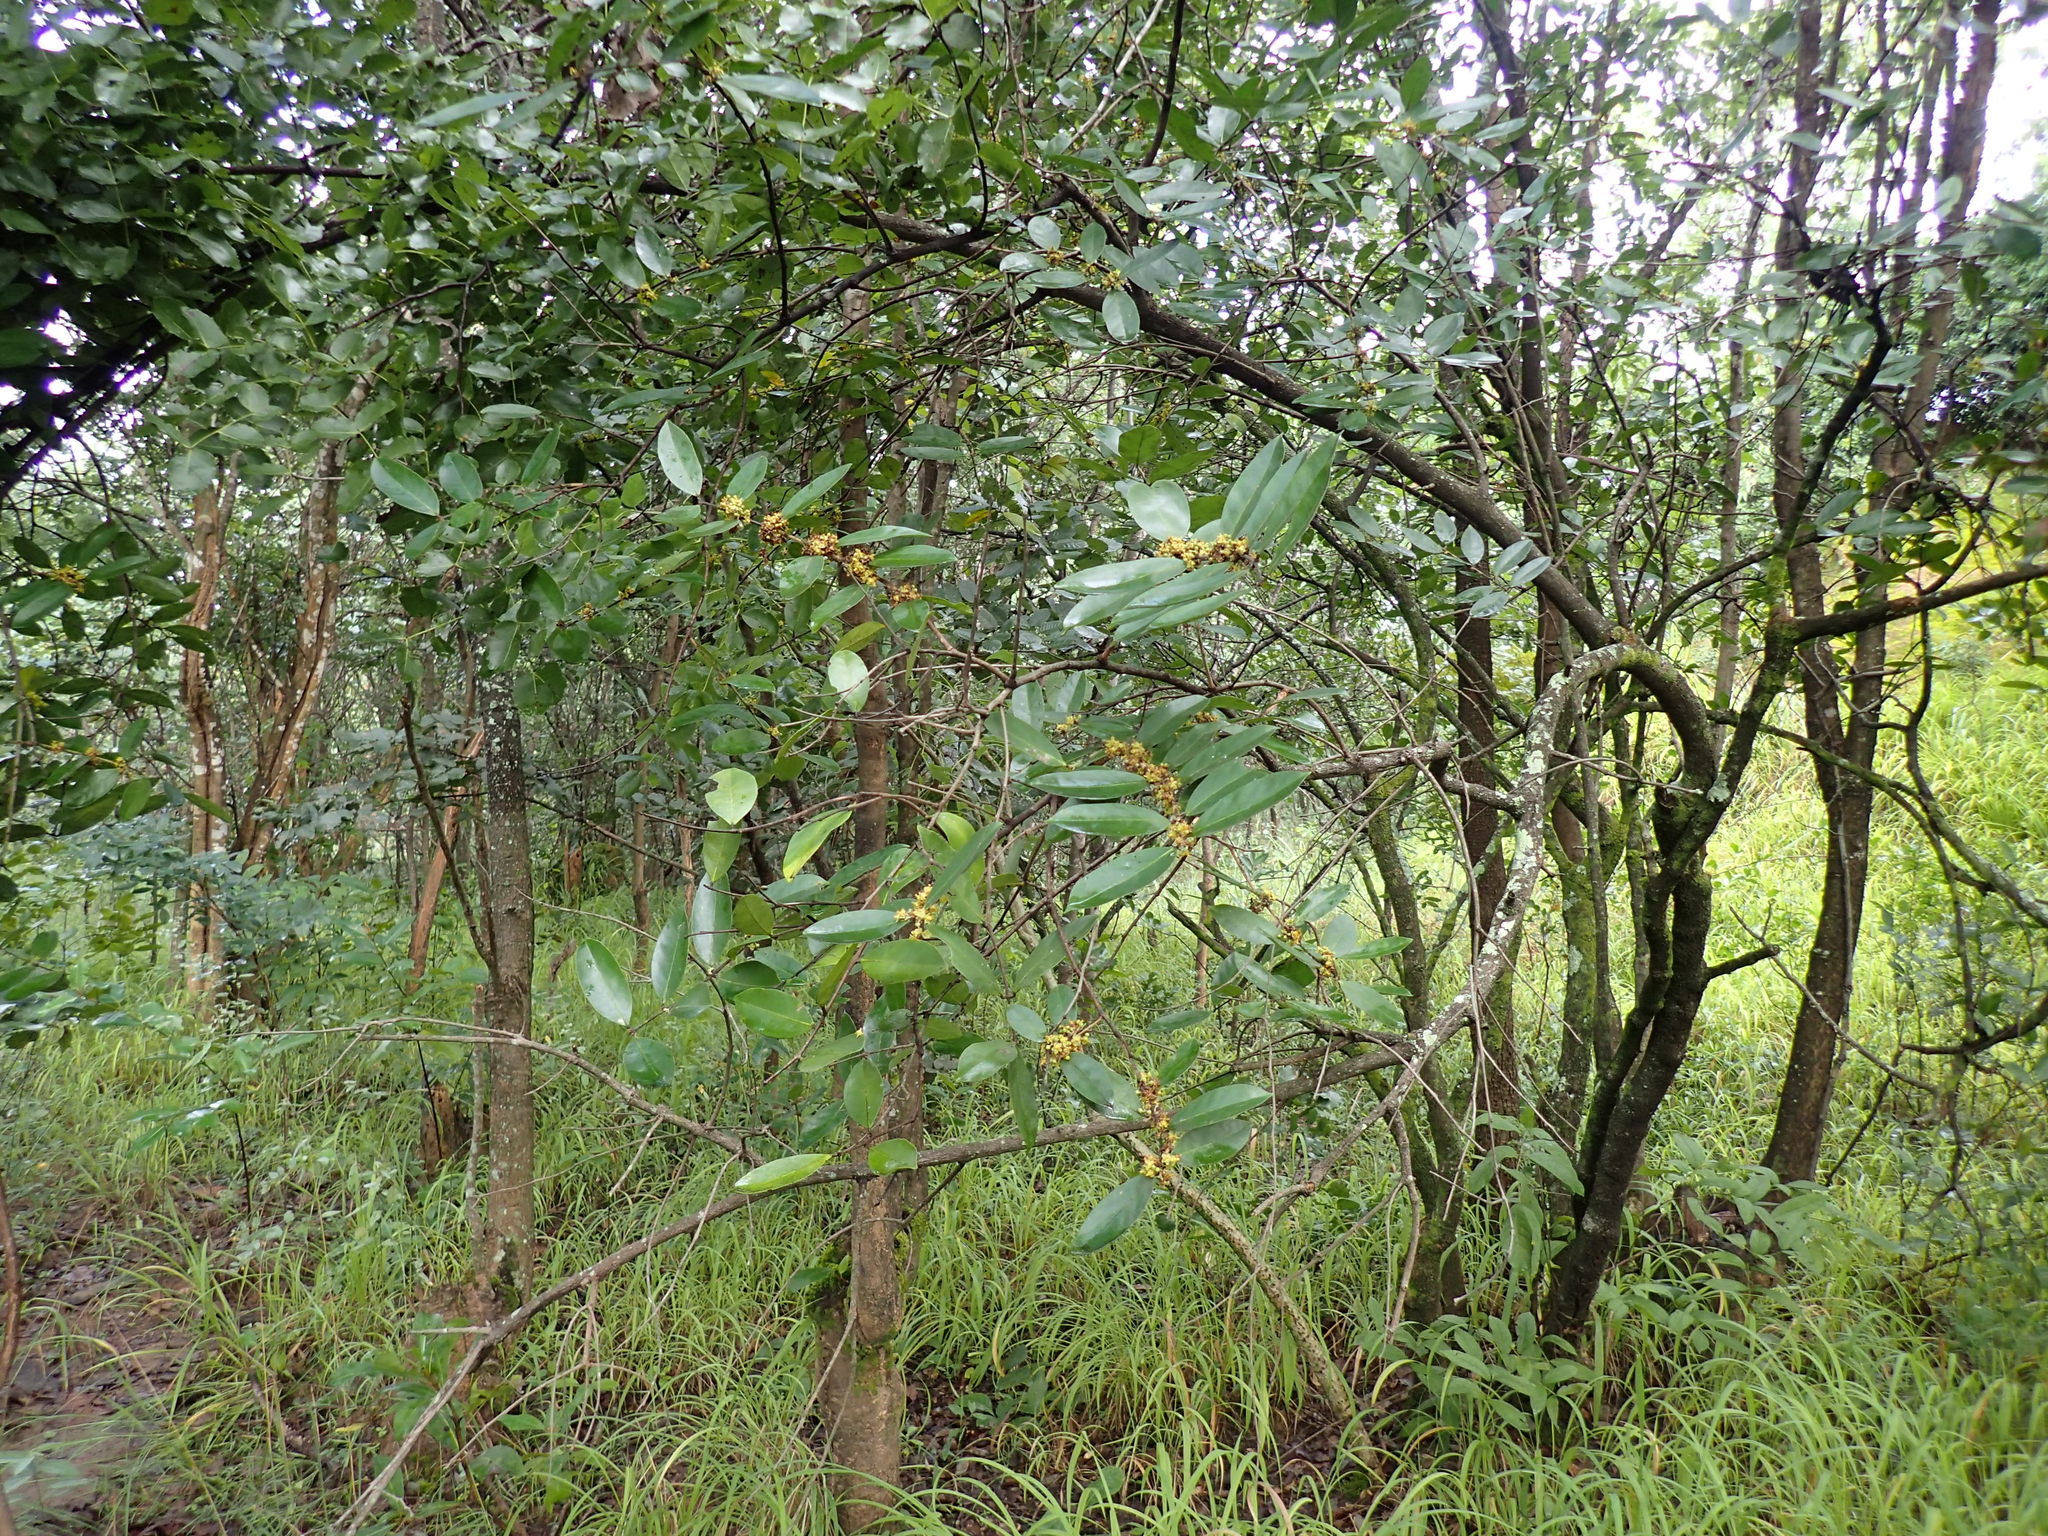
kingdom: Plantae
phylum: Tracheophyta
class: Magnoliopsida
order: Celastrales
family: Celastraceae
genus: Salacia
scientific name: Salacia rhodesiaca
